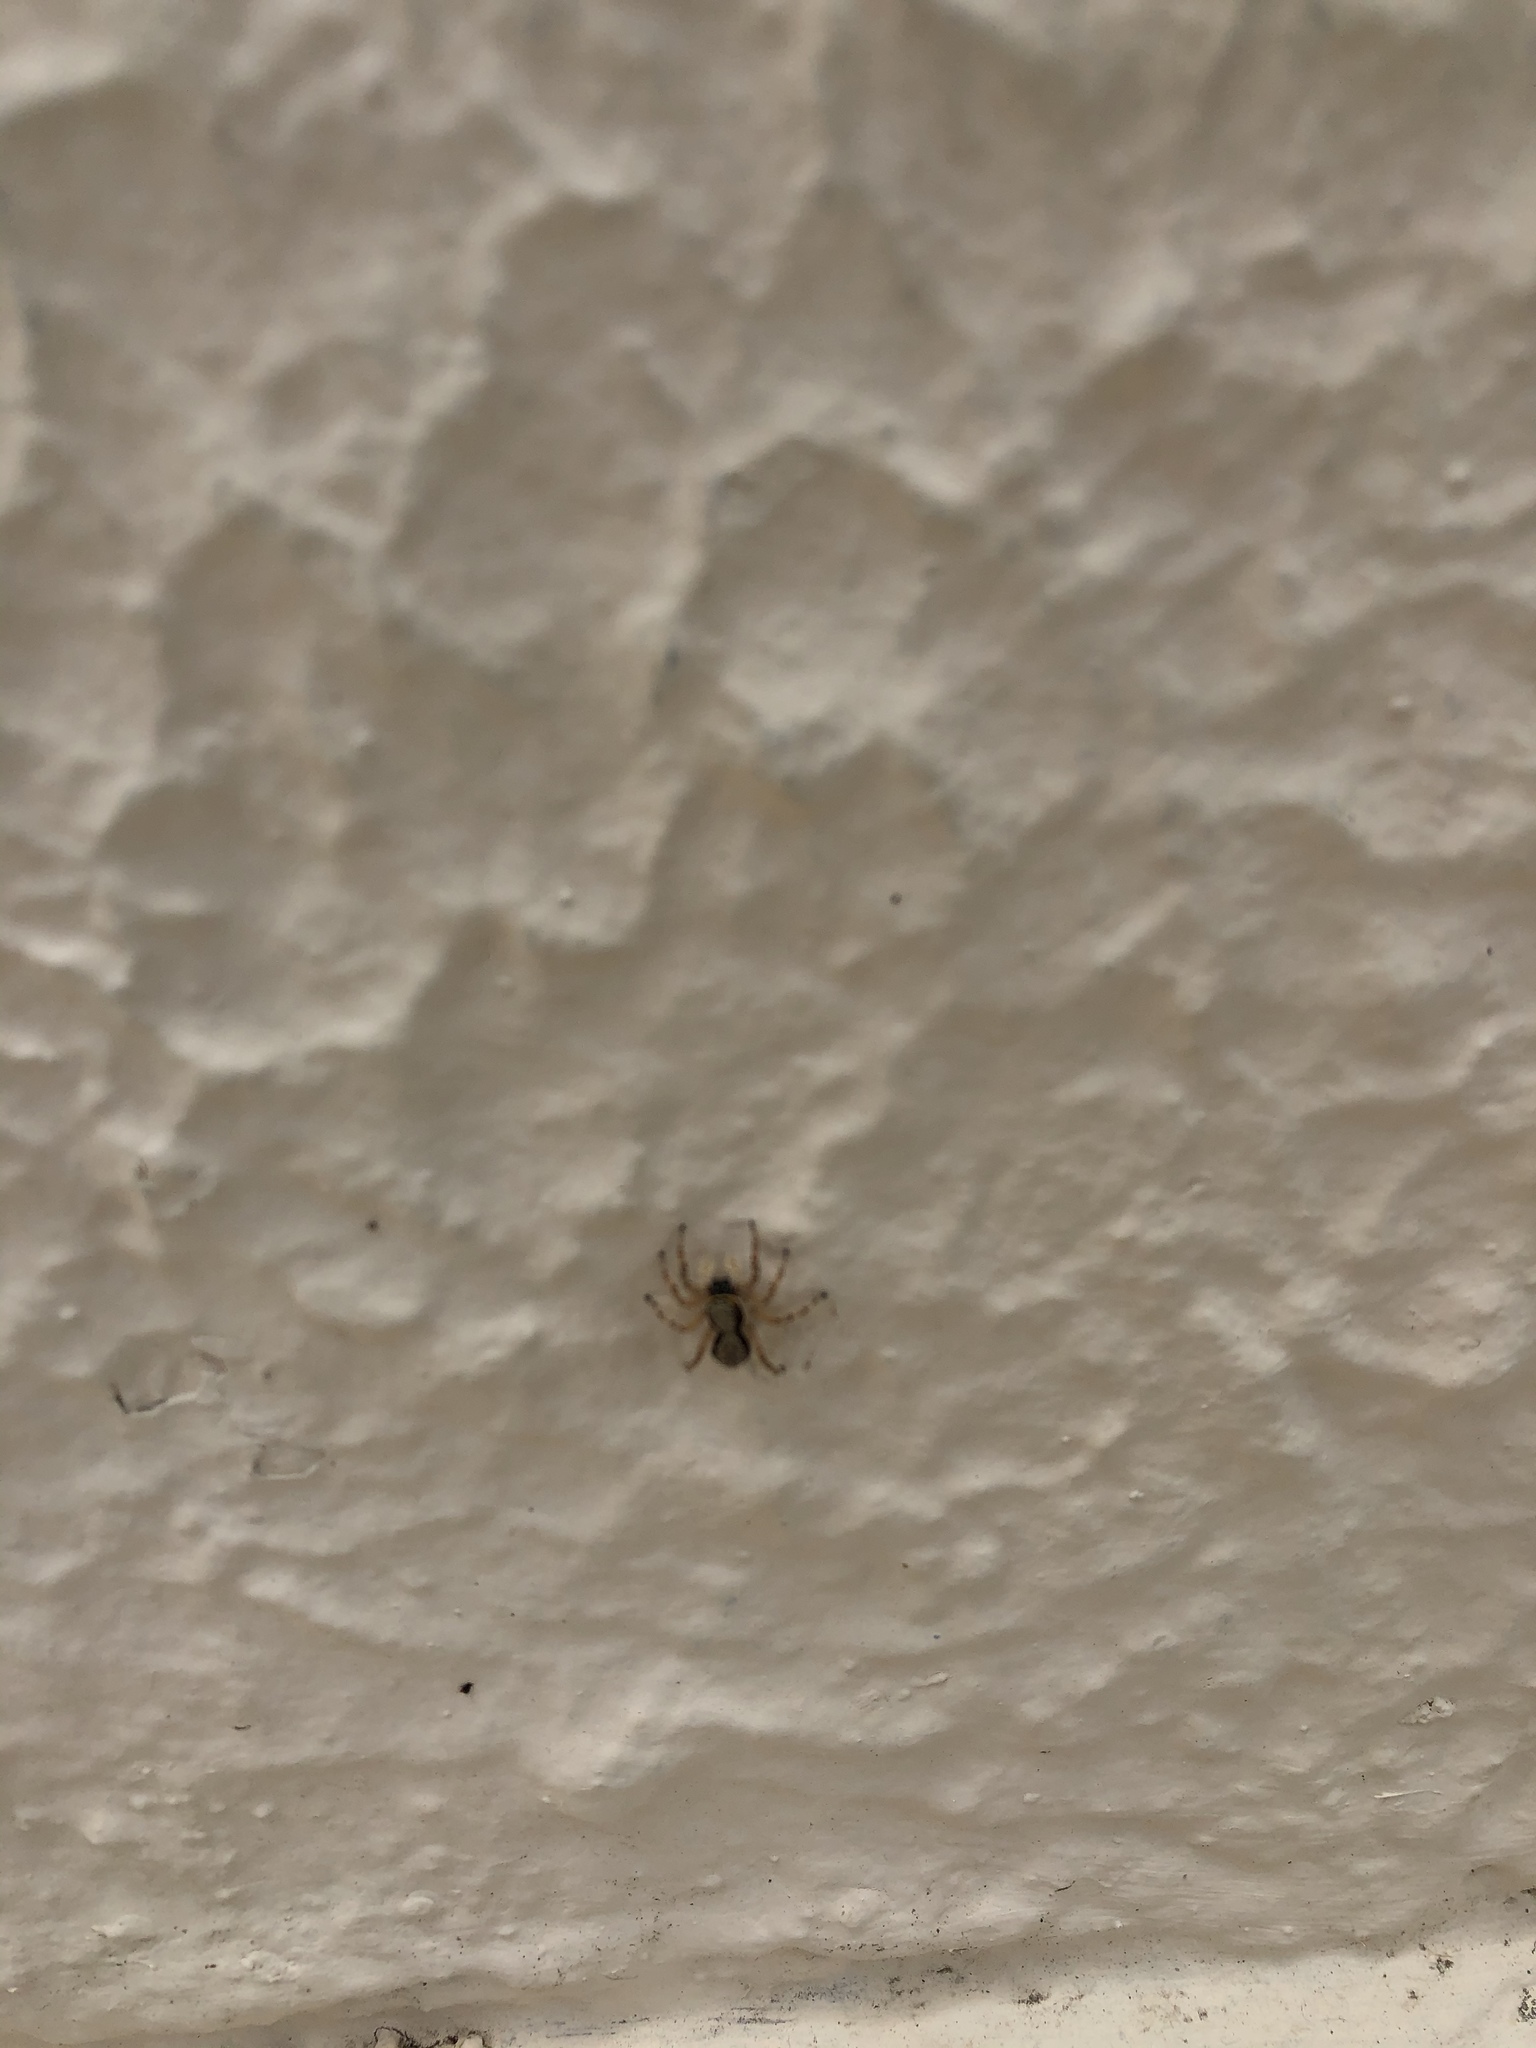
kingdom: Animalia
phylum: Arthropoda
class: Arachnida
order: Araneae
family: Salticidae
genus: Menemerus
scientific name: Menemerus bivittatus
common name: Gray wall jumper
